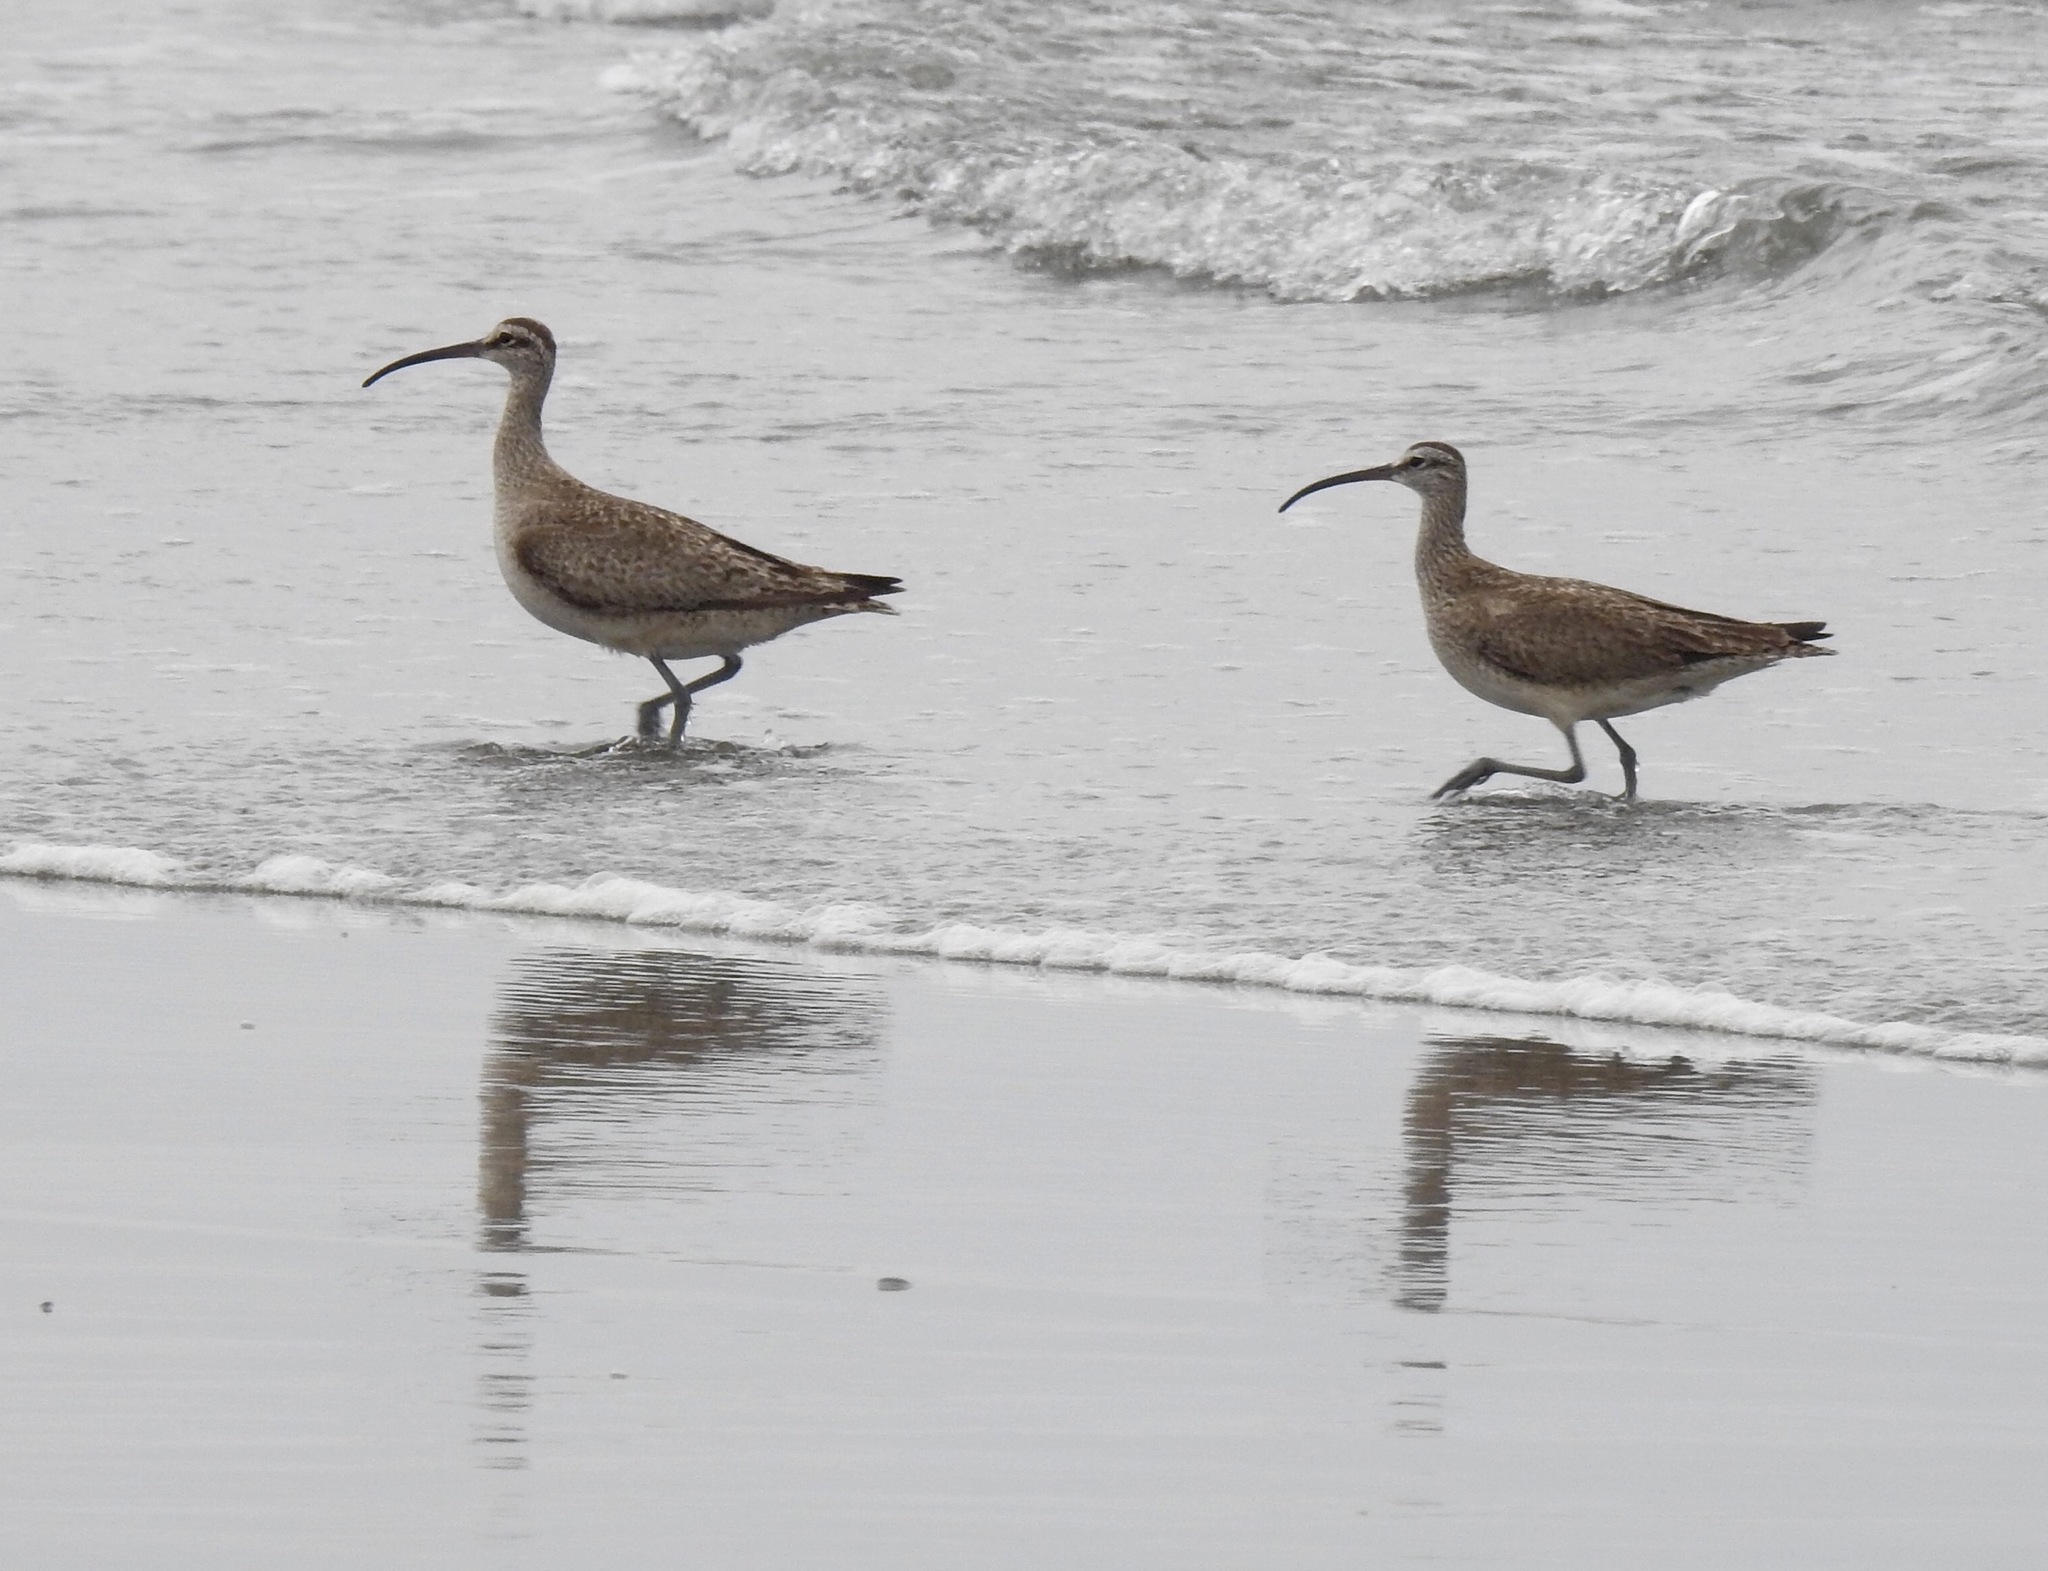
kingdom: Animalia
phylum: Chordata
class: Aves
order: Charadriiformes
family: Scolopacidae
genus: Numenius
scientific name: Numenius phaeopus
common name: Whimbrel
